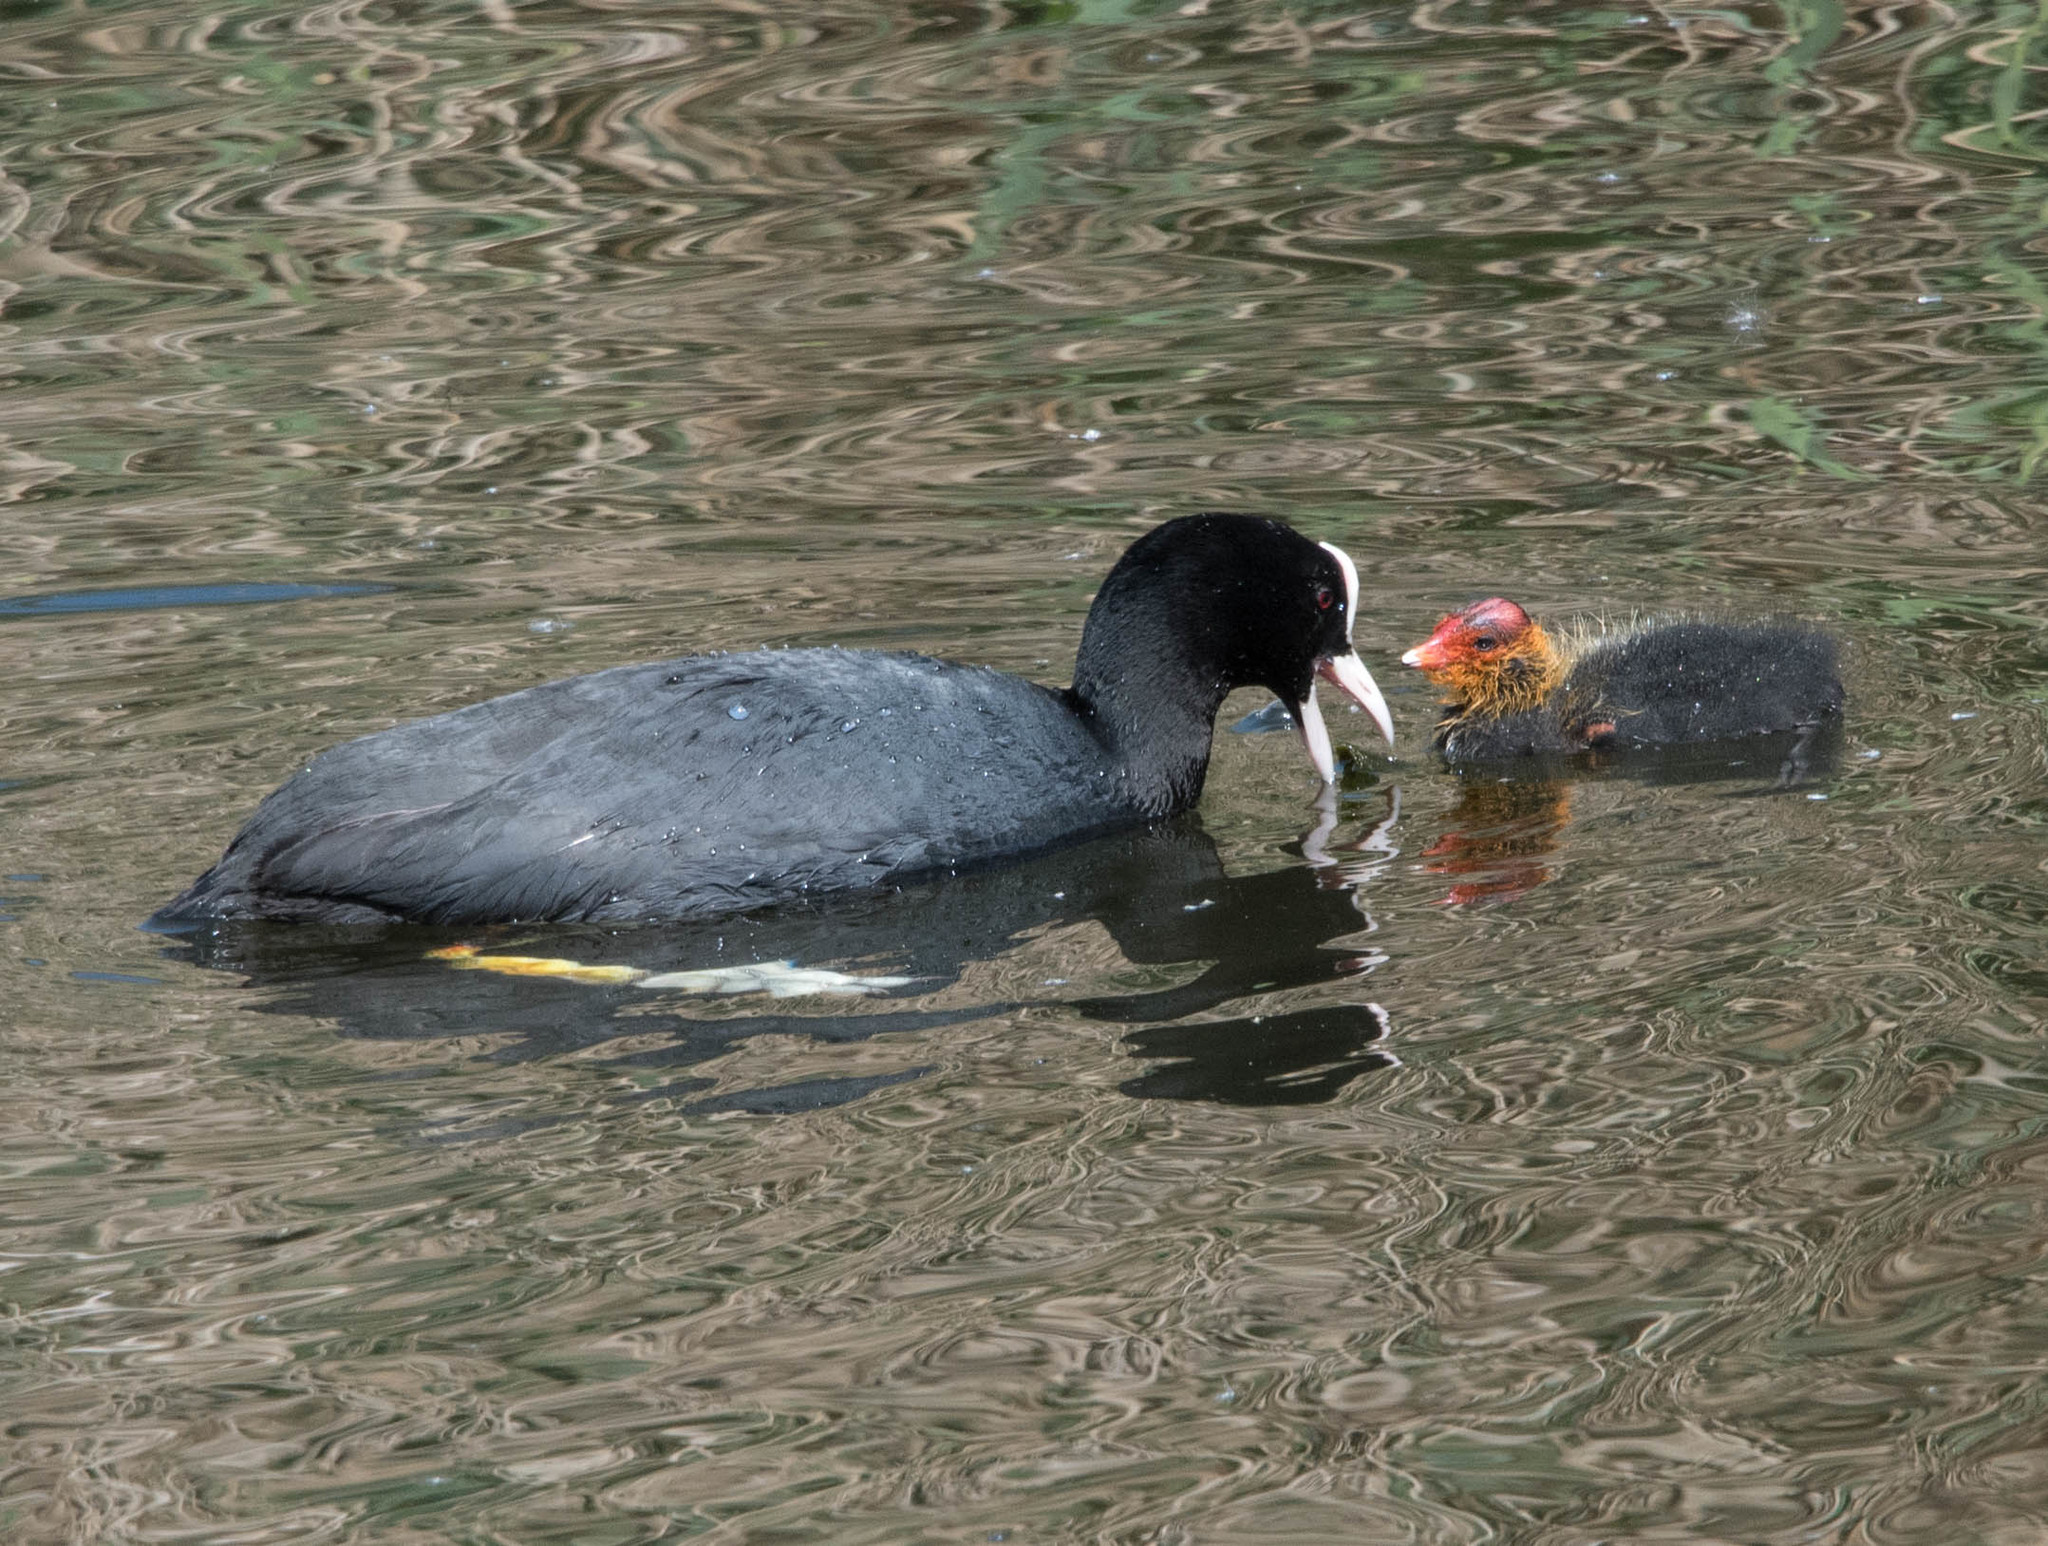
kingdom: Animalia
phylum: Chordata
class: Aves
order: Gruiformes
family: Rallidae
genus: Fulica
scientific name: Fulica atra
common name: Eurasian coot
